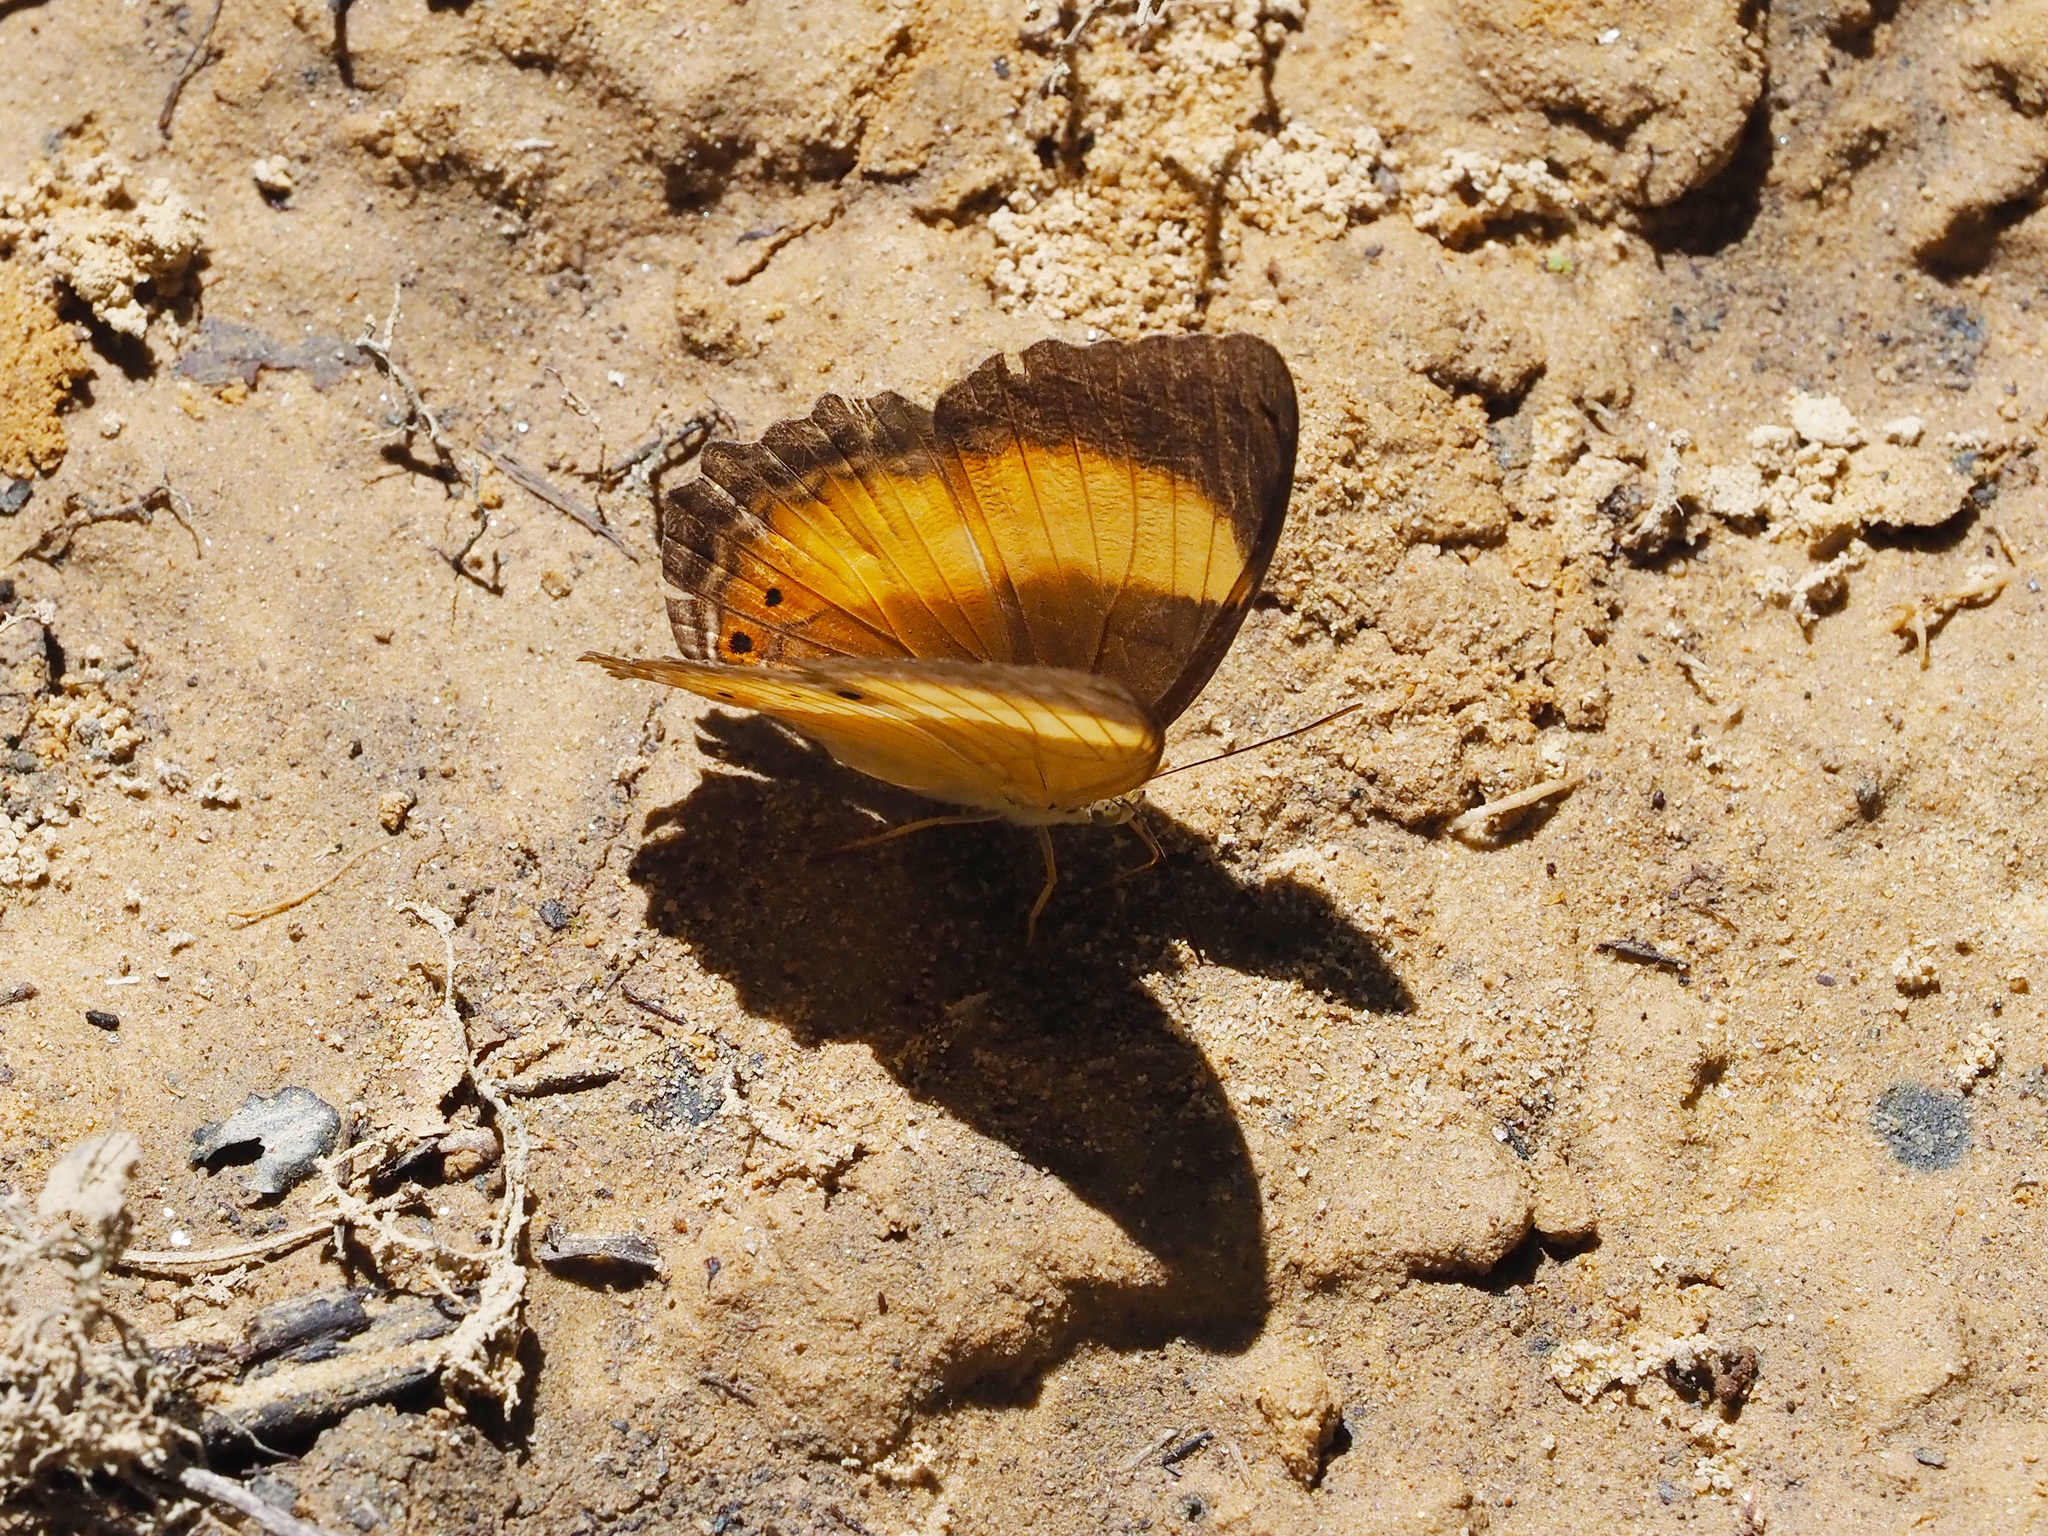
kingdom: Animalia
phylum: Arthropoda
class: Insecta
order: Lepidoptera
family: Nymphalidae
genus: Cirrochroa
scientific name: Cirrochroa satellita
